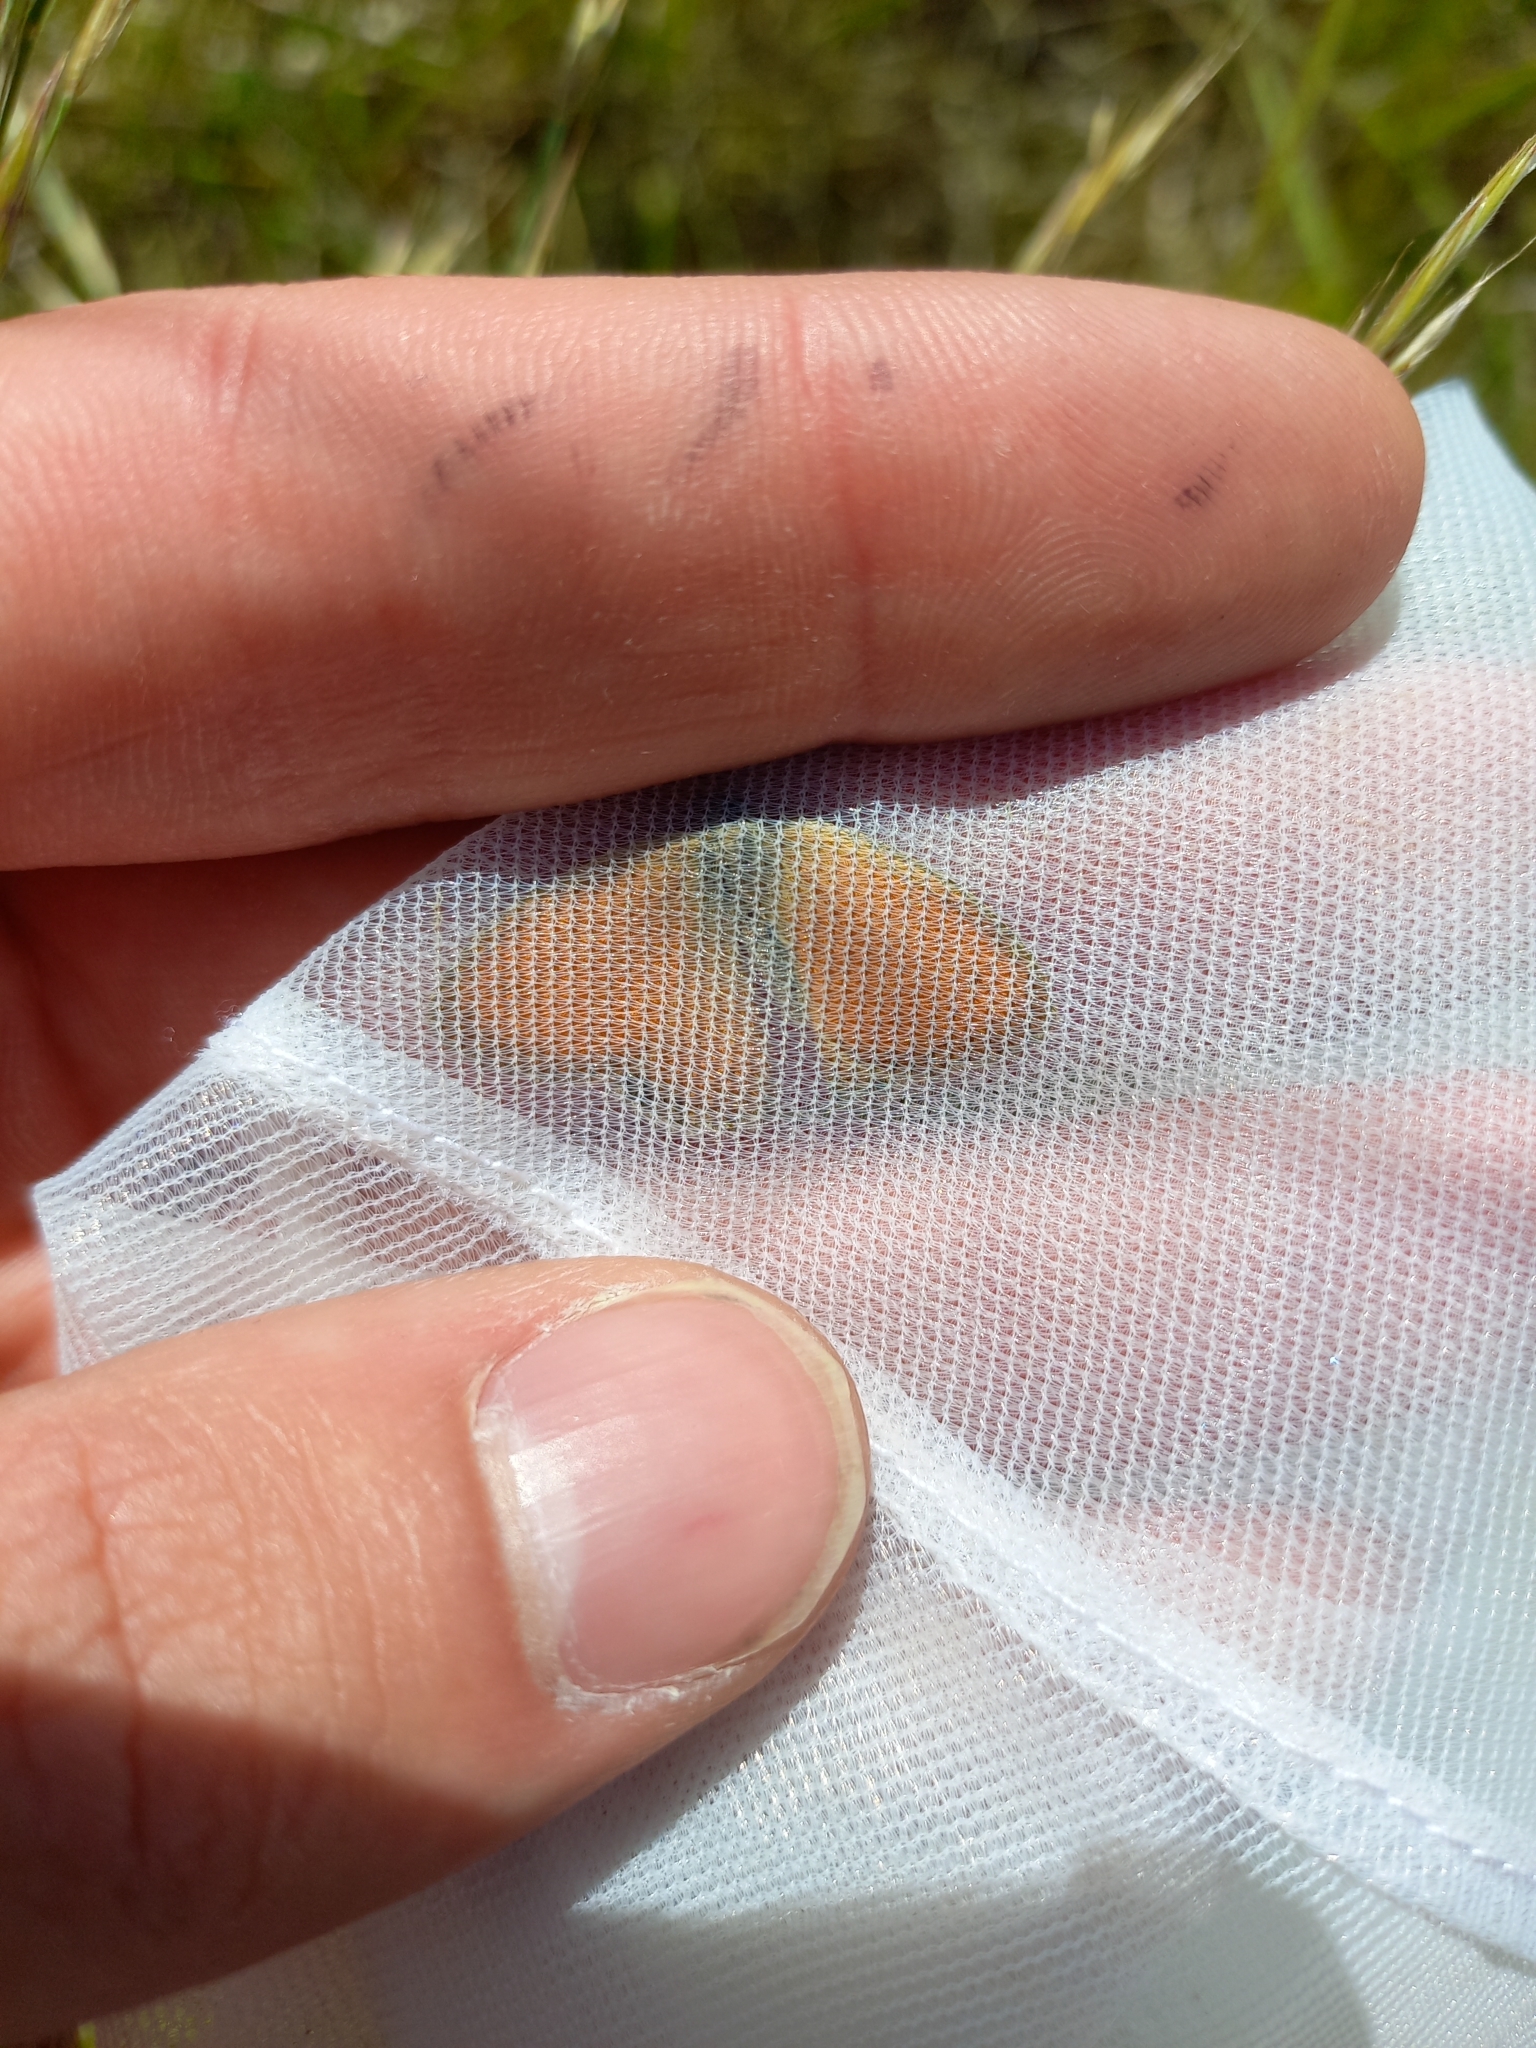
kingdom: Animalia
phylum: Arthropoda
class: Insecta
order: Lepidoptera
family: Nymphalidae
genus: Coenonympha
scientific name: Coenonympha pamphilus
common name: Small heath
